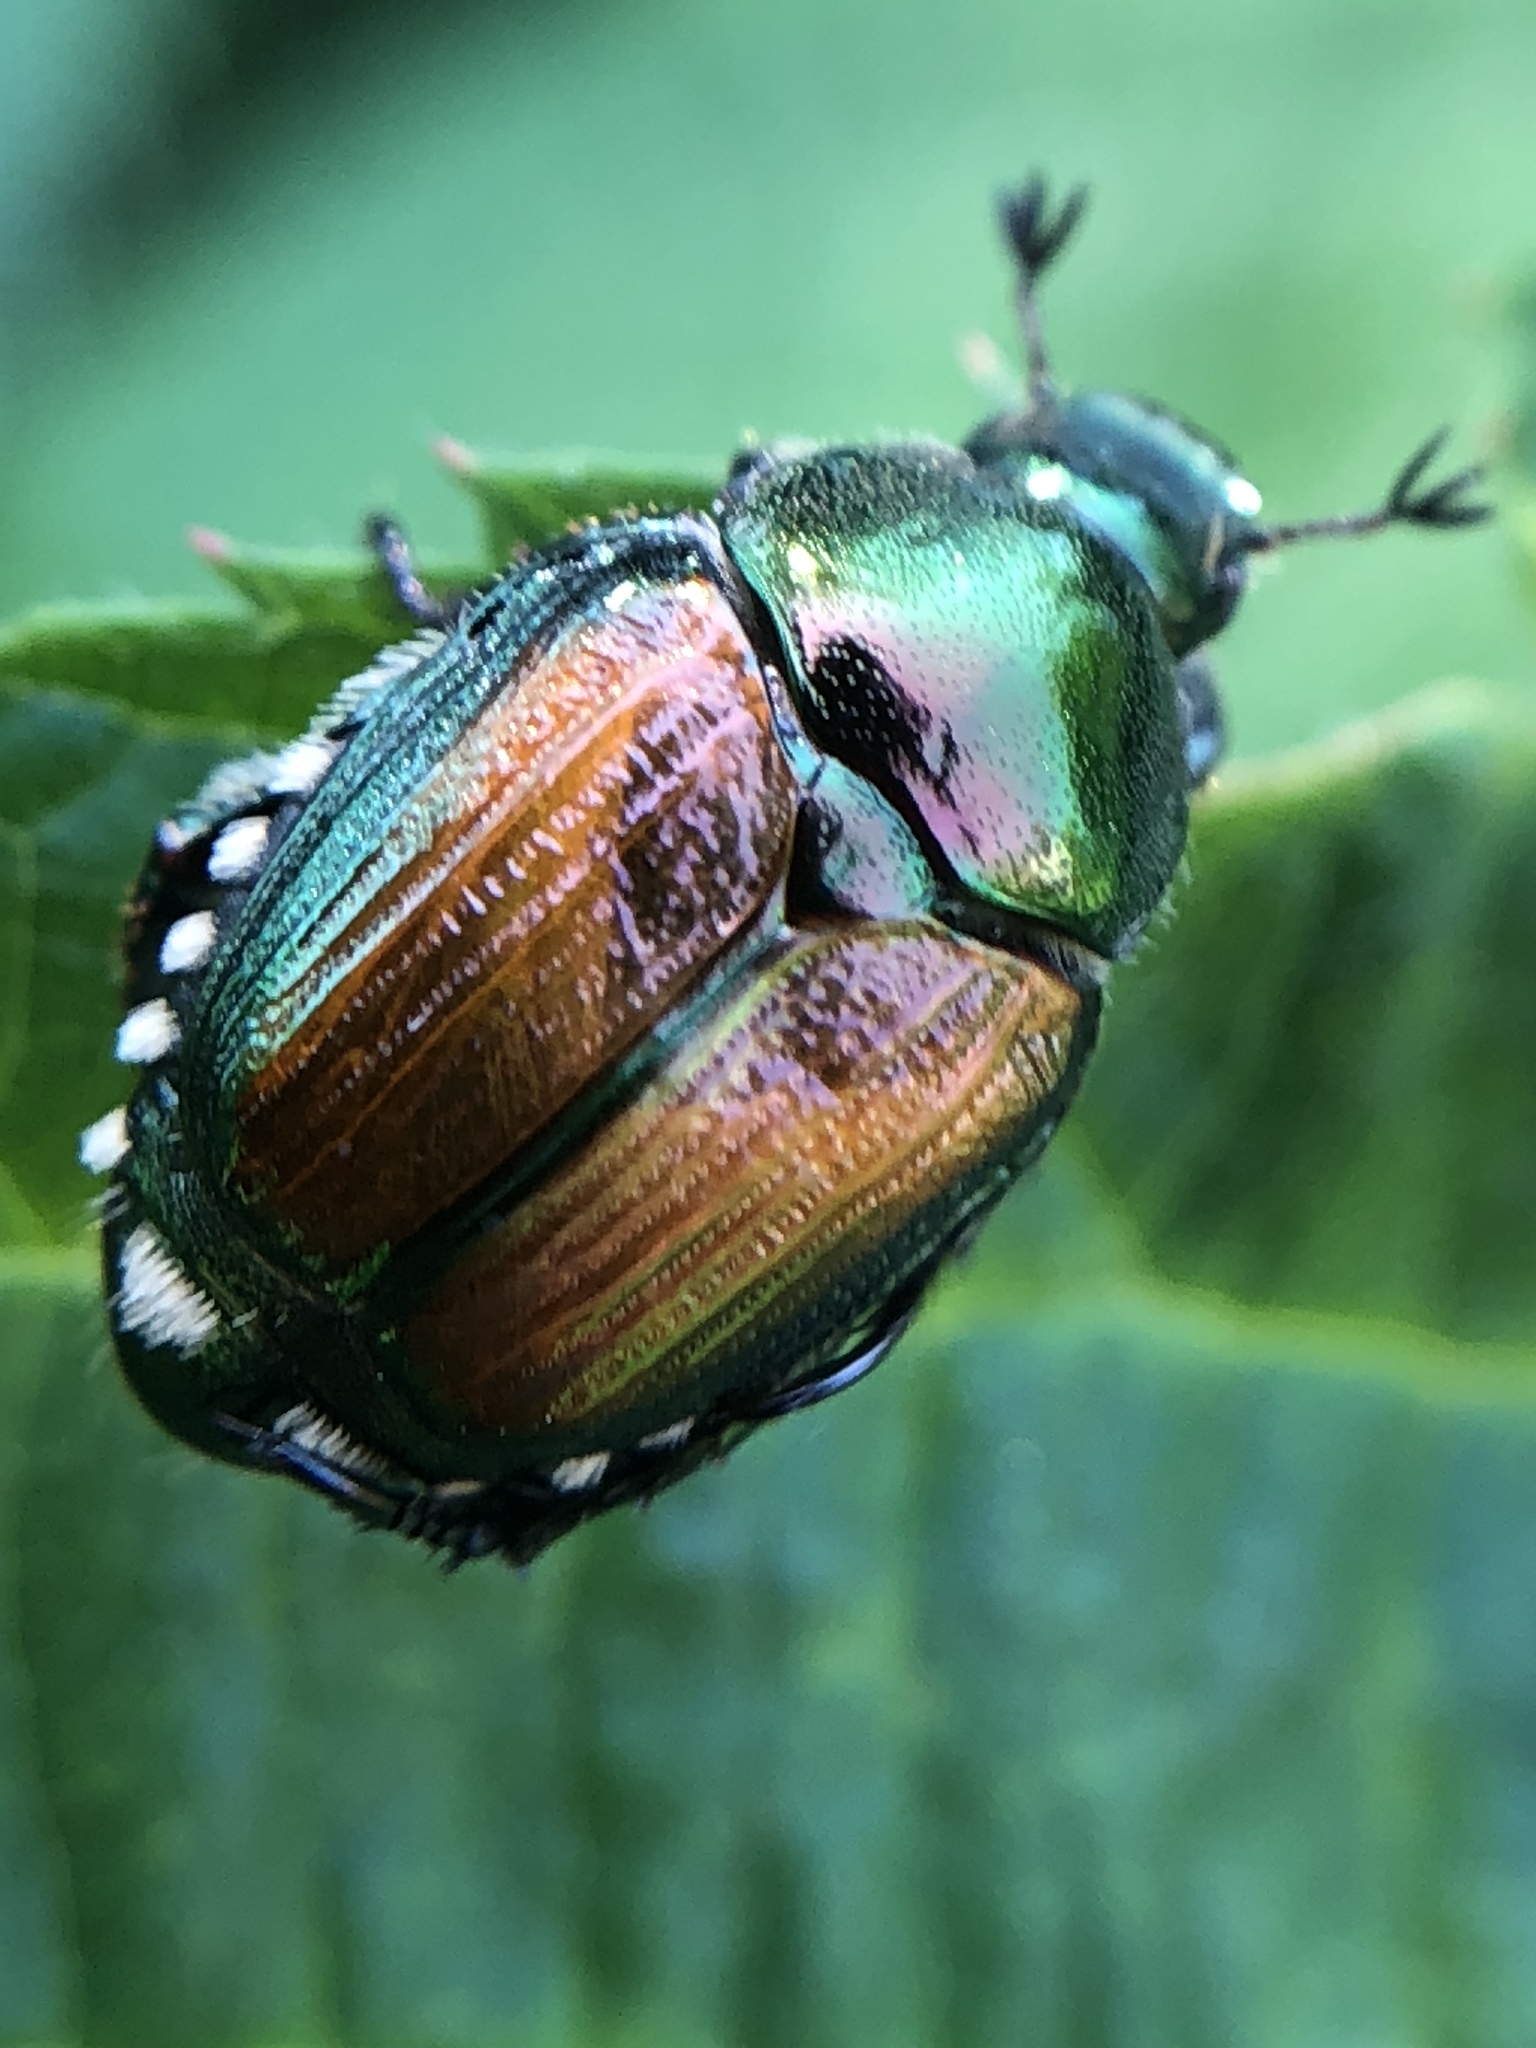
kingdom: Animalia
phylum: Arthropoda
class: Insecta
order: Coleoptera
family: Scarabaeidae
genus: Popillia
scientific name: Popillia japonica
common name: Japanese beetle
